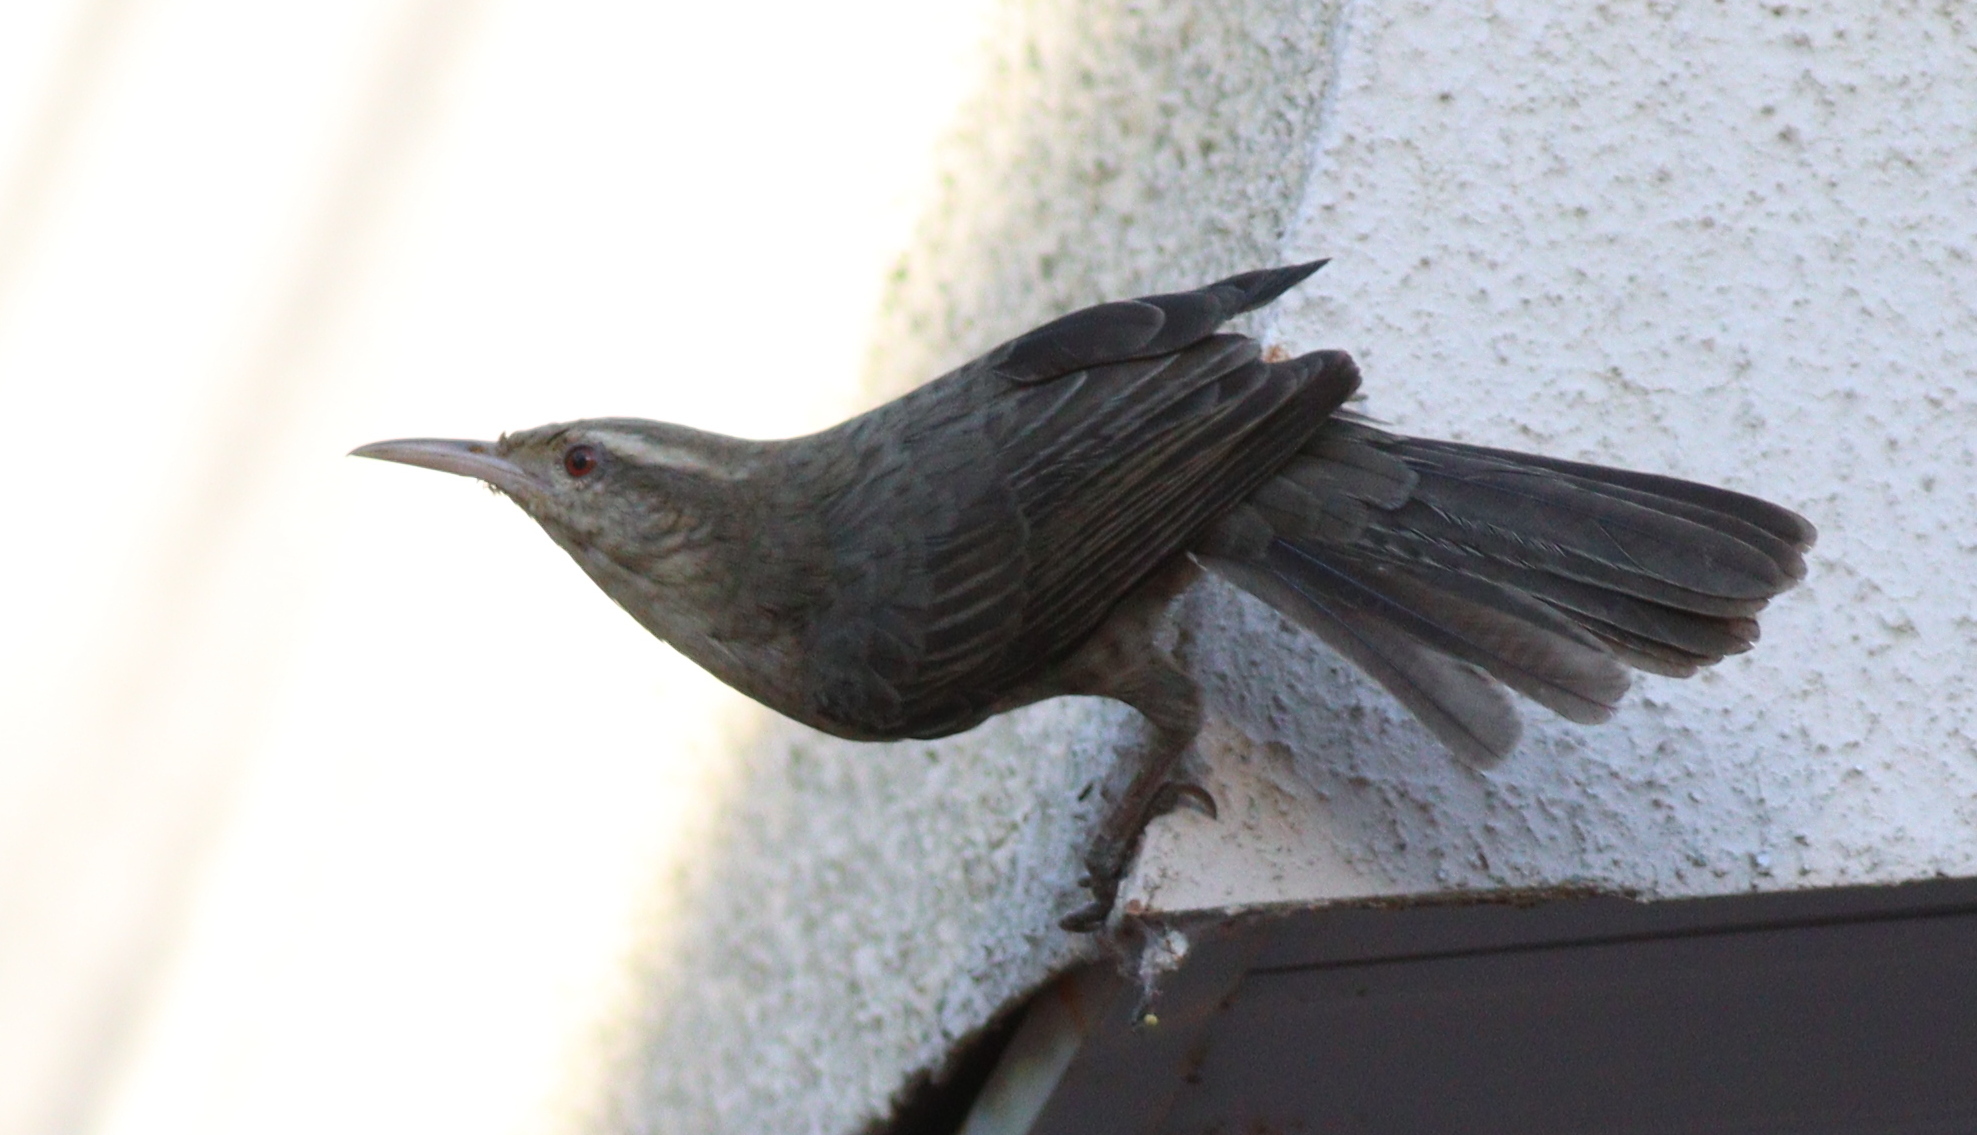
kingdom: Animalia
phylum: Chordata
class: Aves
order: Passeriformes
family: Troglodytidae
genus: Campylorhynchus
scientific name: Campylorhynchus turdinus
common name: Thrush-like wren
